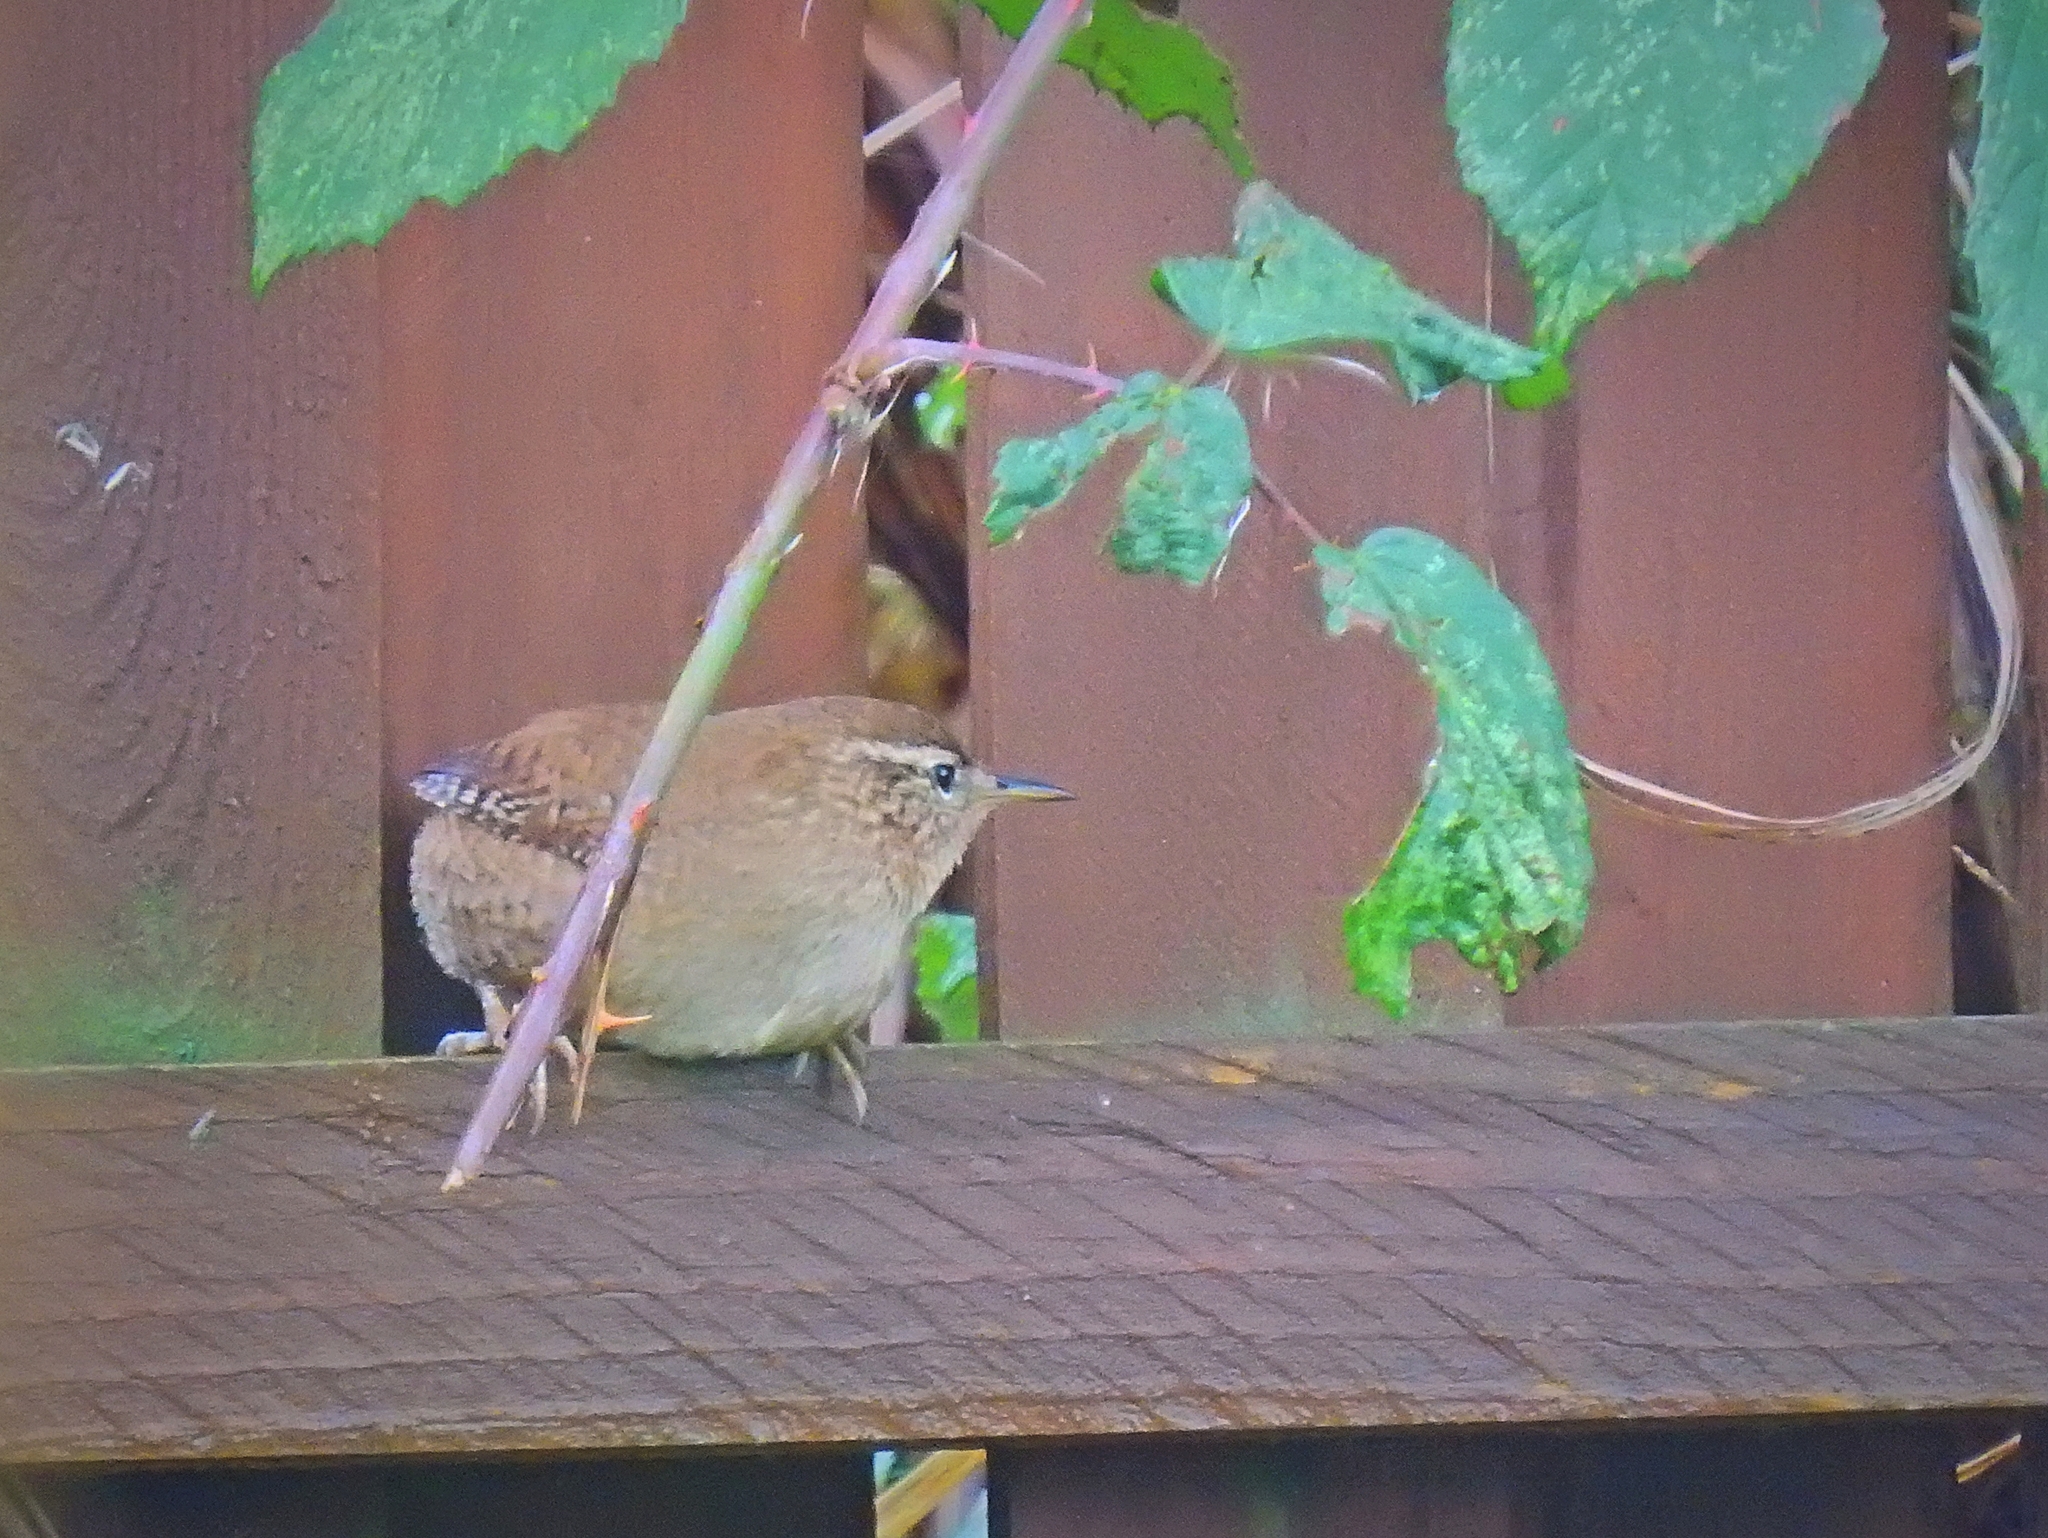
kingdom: Animalia
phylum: Chordata
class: Aves
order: Passeriformes
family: Troglodytidae
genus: Troglodytes
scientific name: Troglodytes troglodytes
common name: Eurasian wren
